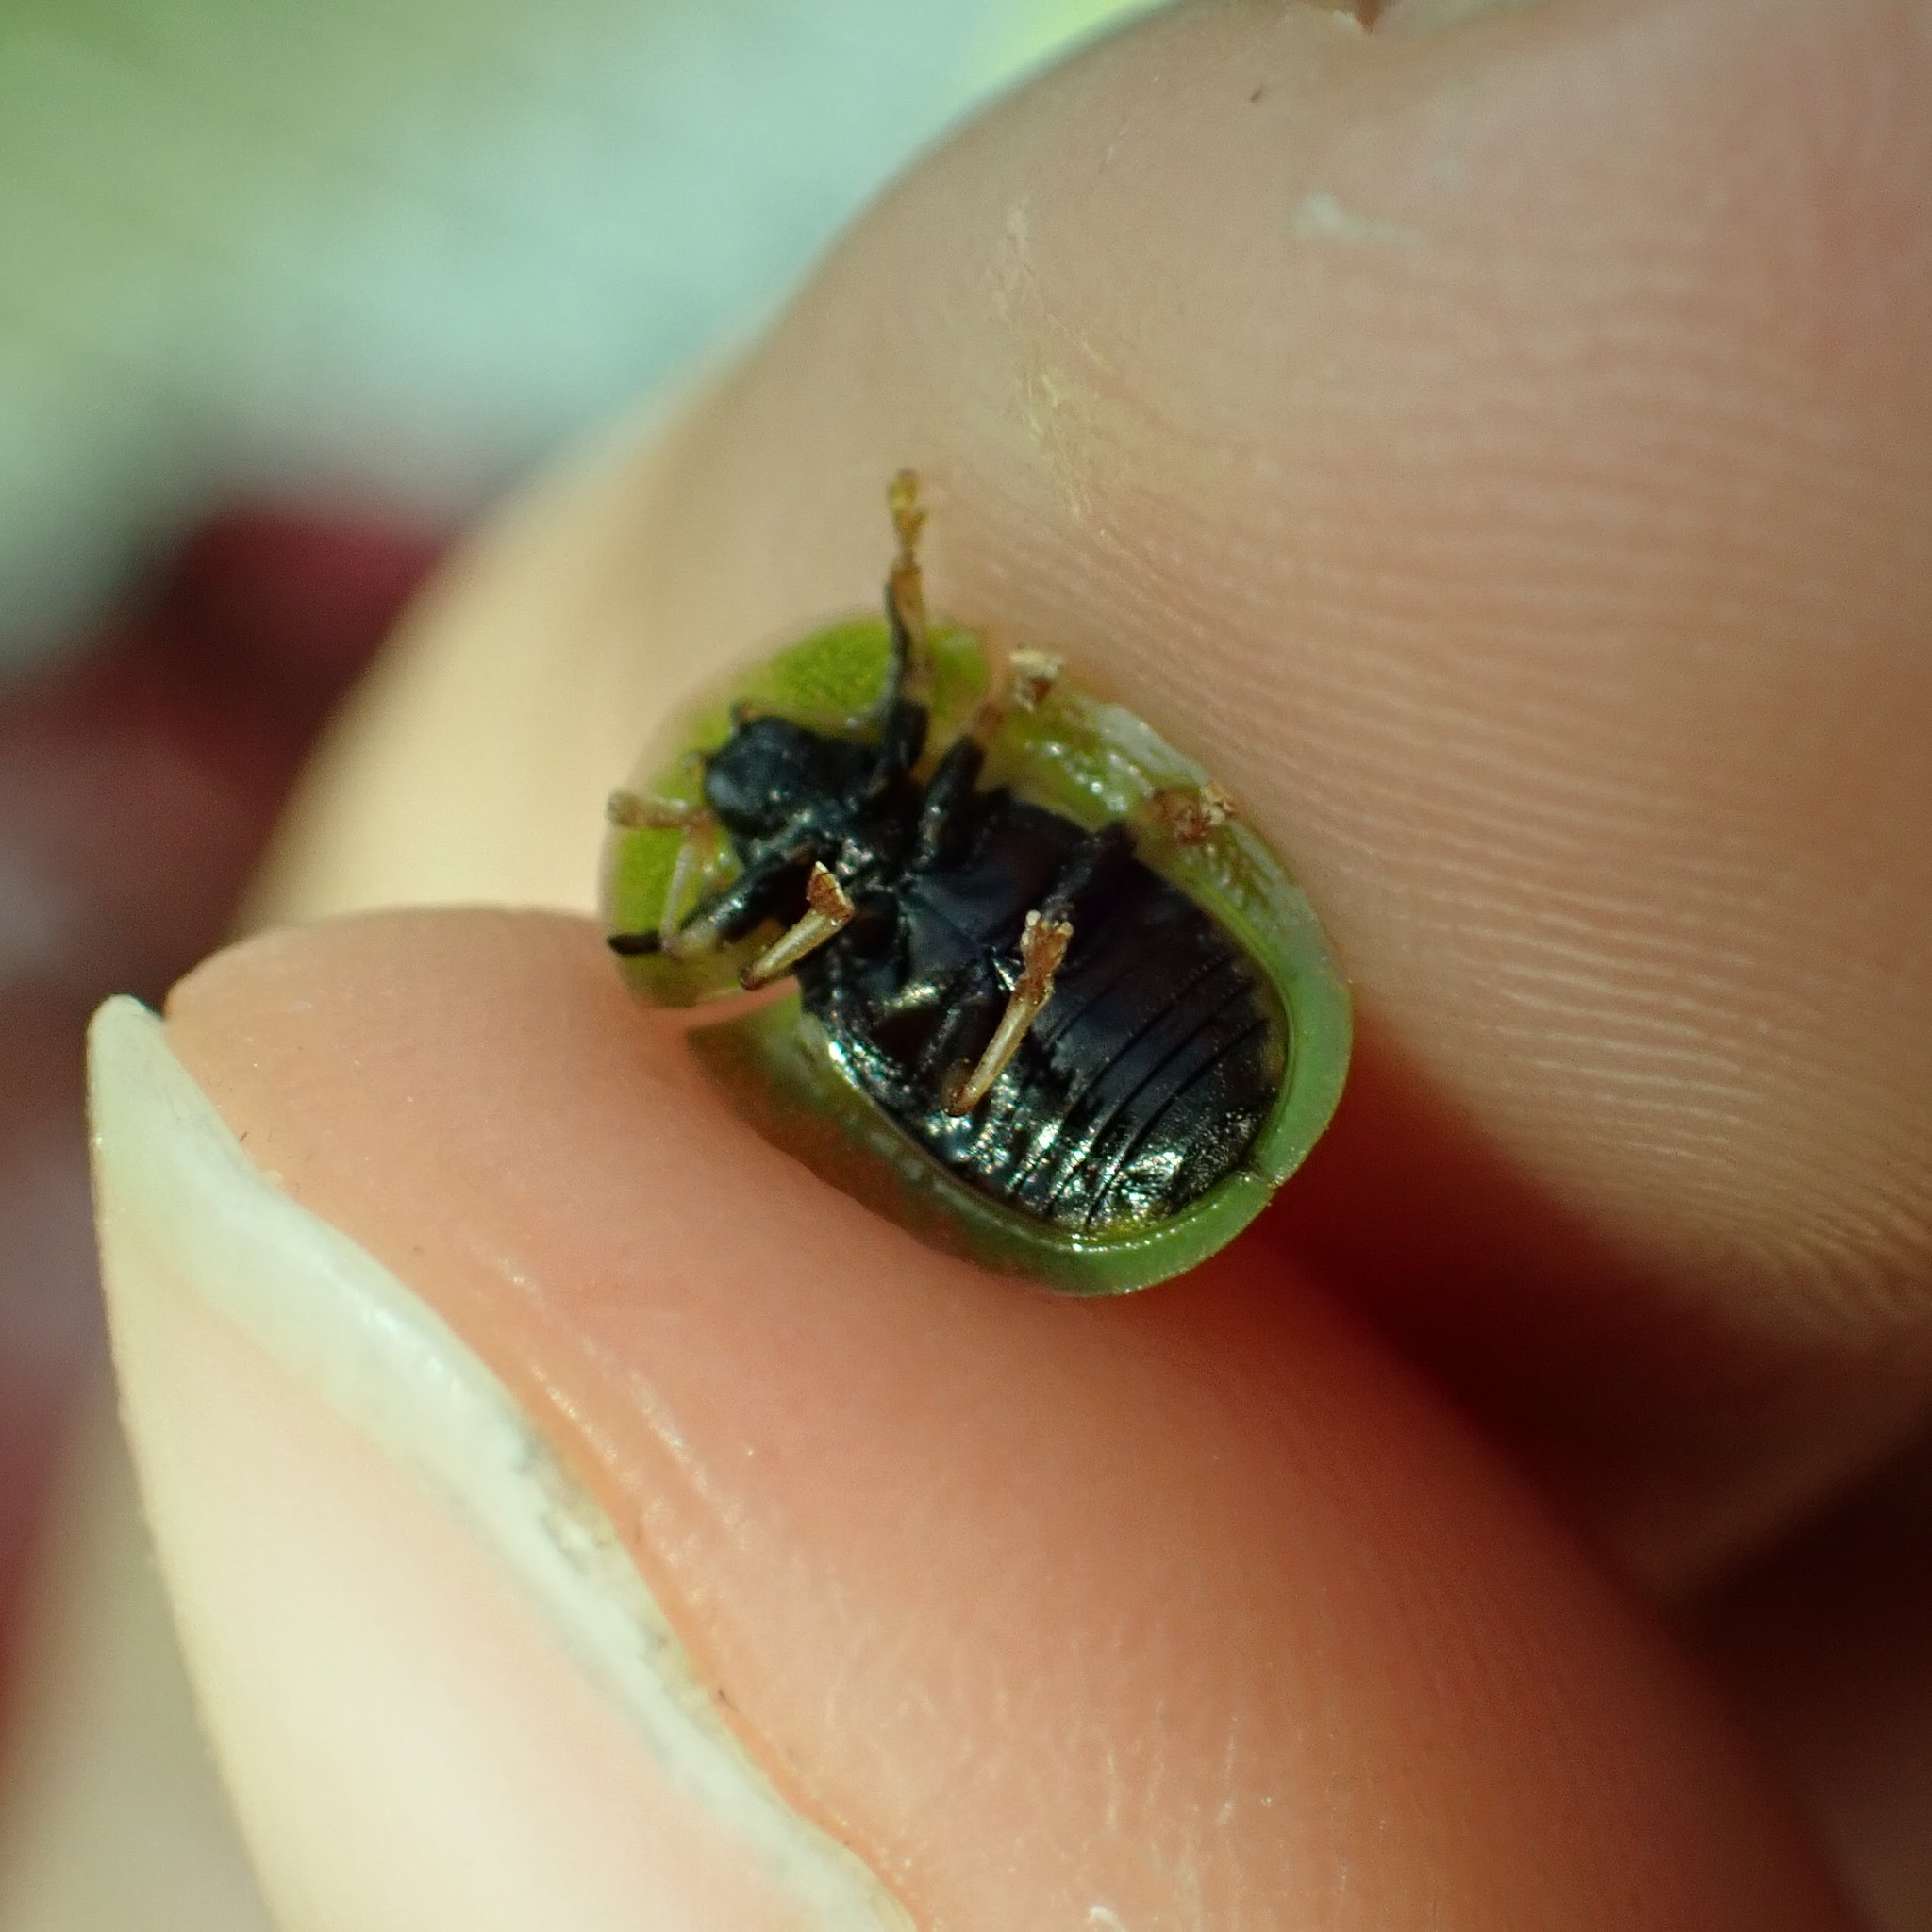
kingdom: Animalia
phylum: Arthropoda
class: Insecta
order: Coleoptera
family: Chrysomelidae
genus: Cassida
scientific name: Cassida rubiginosa
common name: Thistle tortoise beetle
